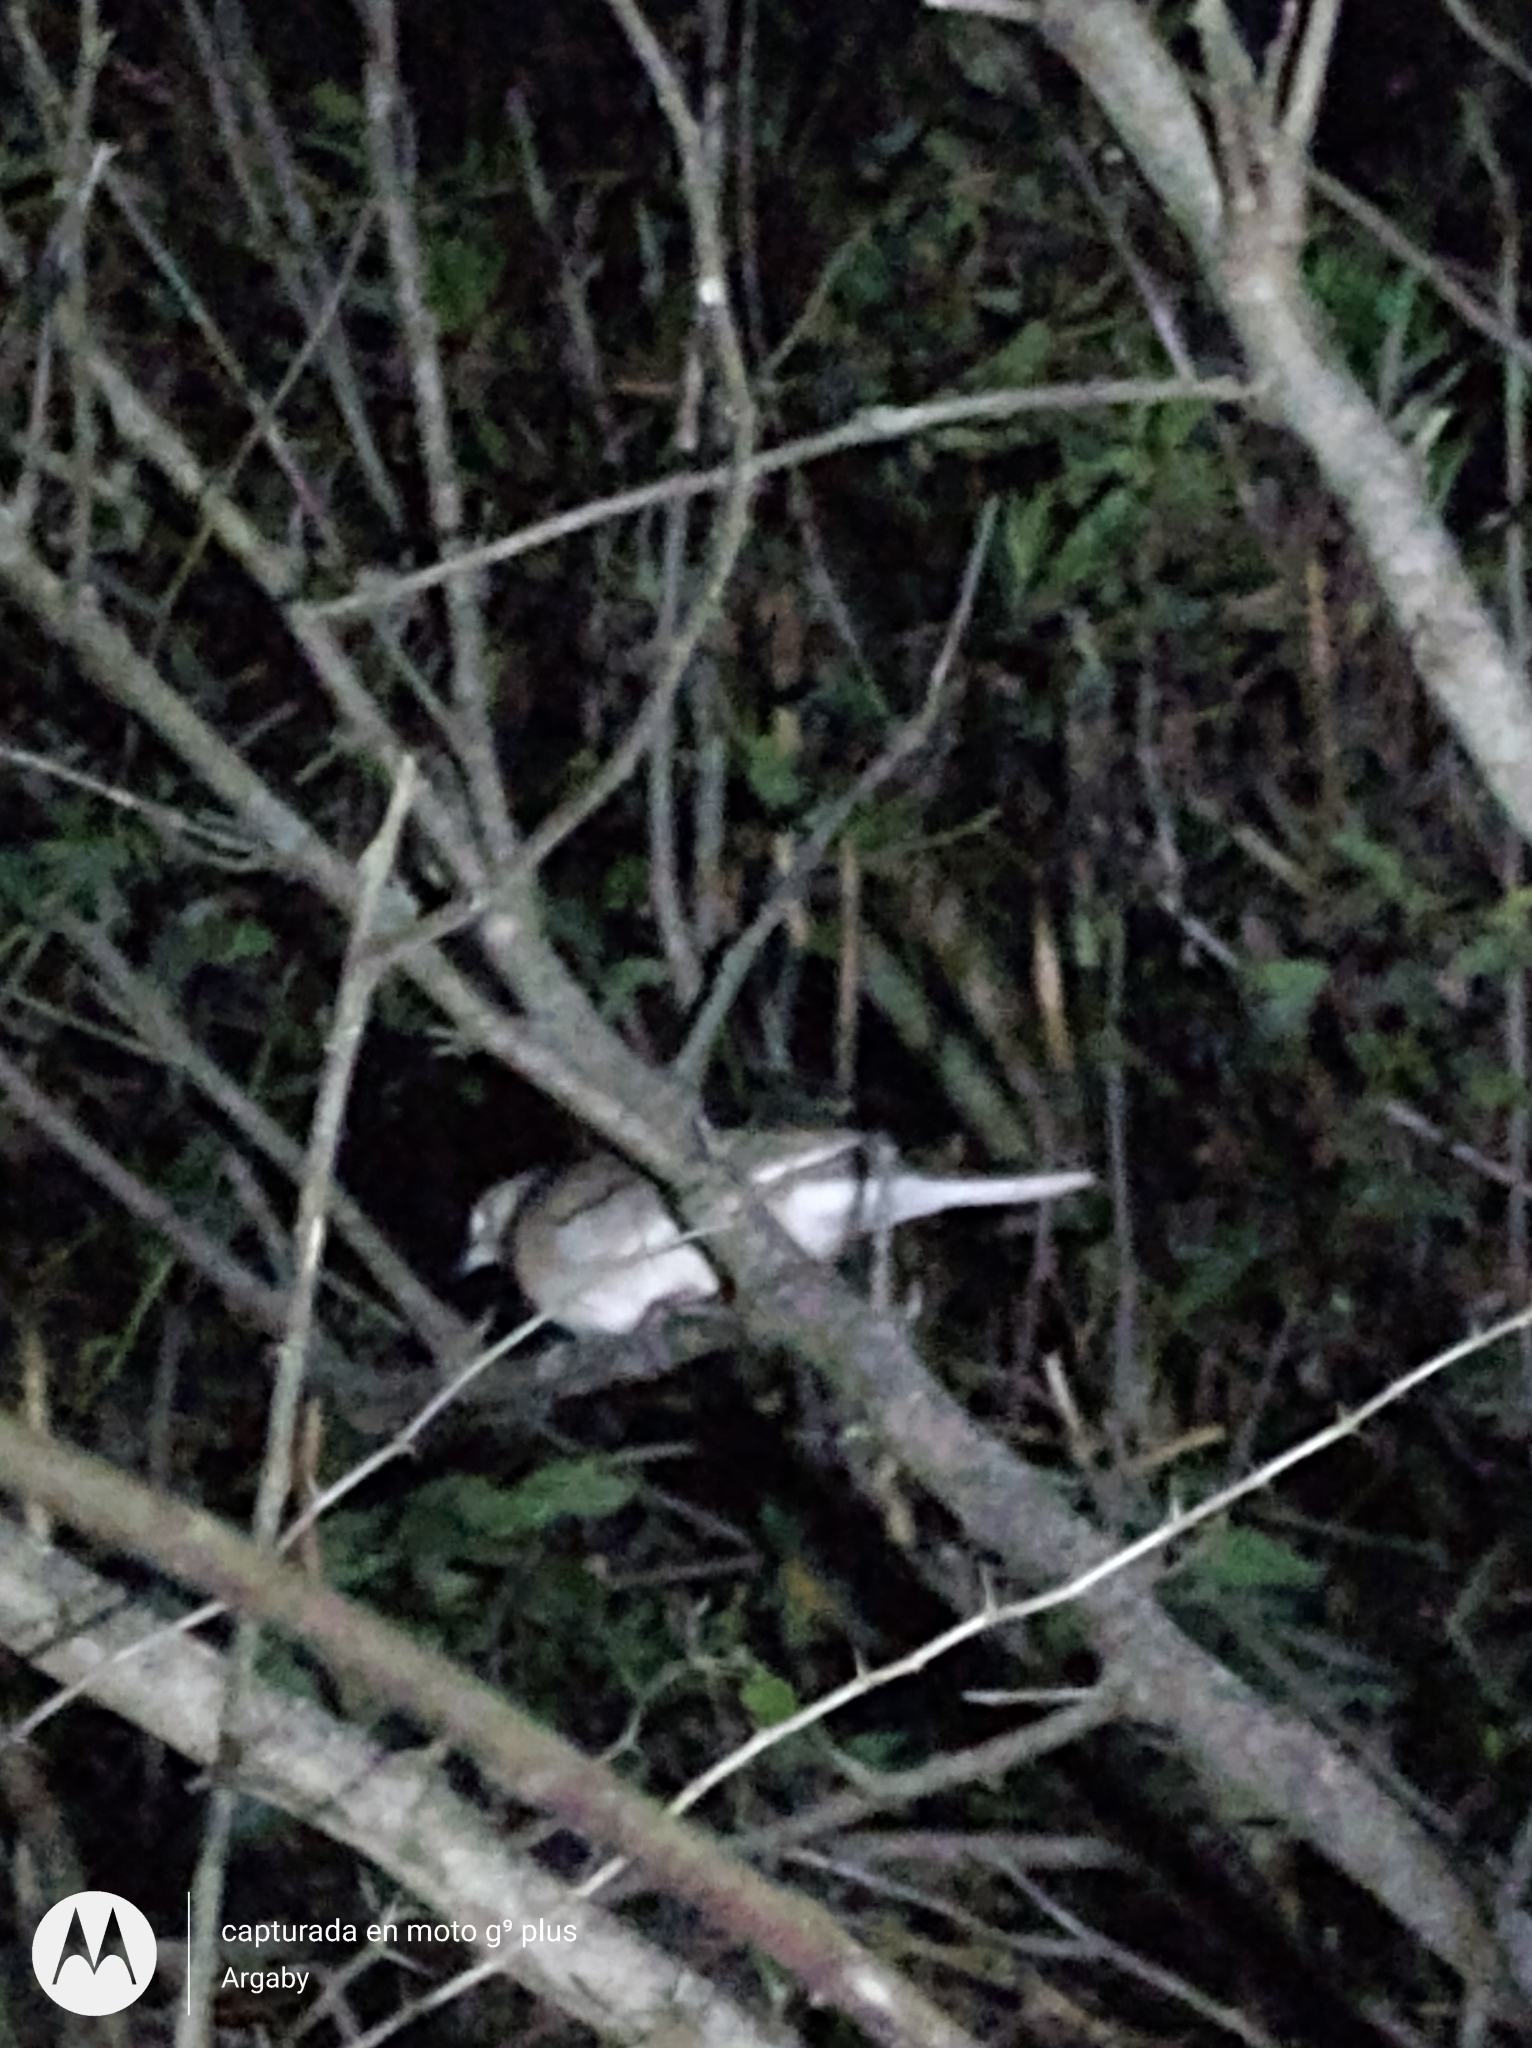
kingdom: Animalia
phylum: Chordata
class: Aves
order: Columbiformes
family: Columbidae
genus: Columbina
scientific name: Columbina picui
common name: Picui ground dove
